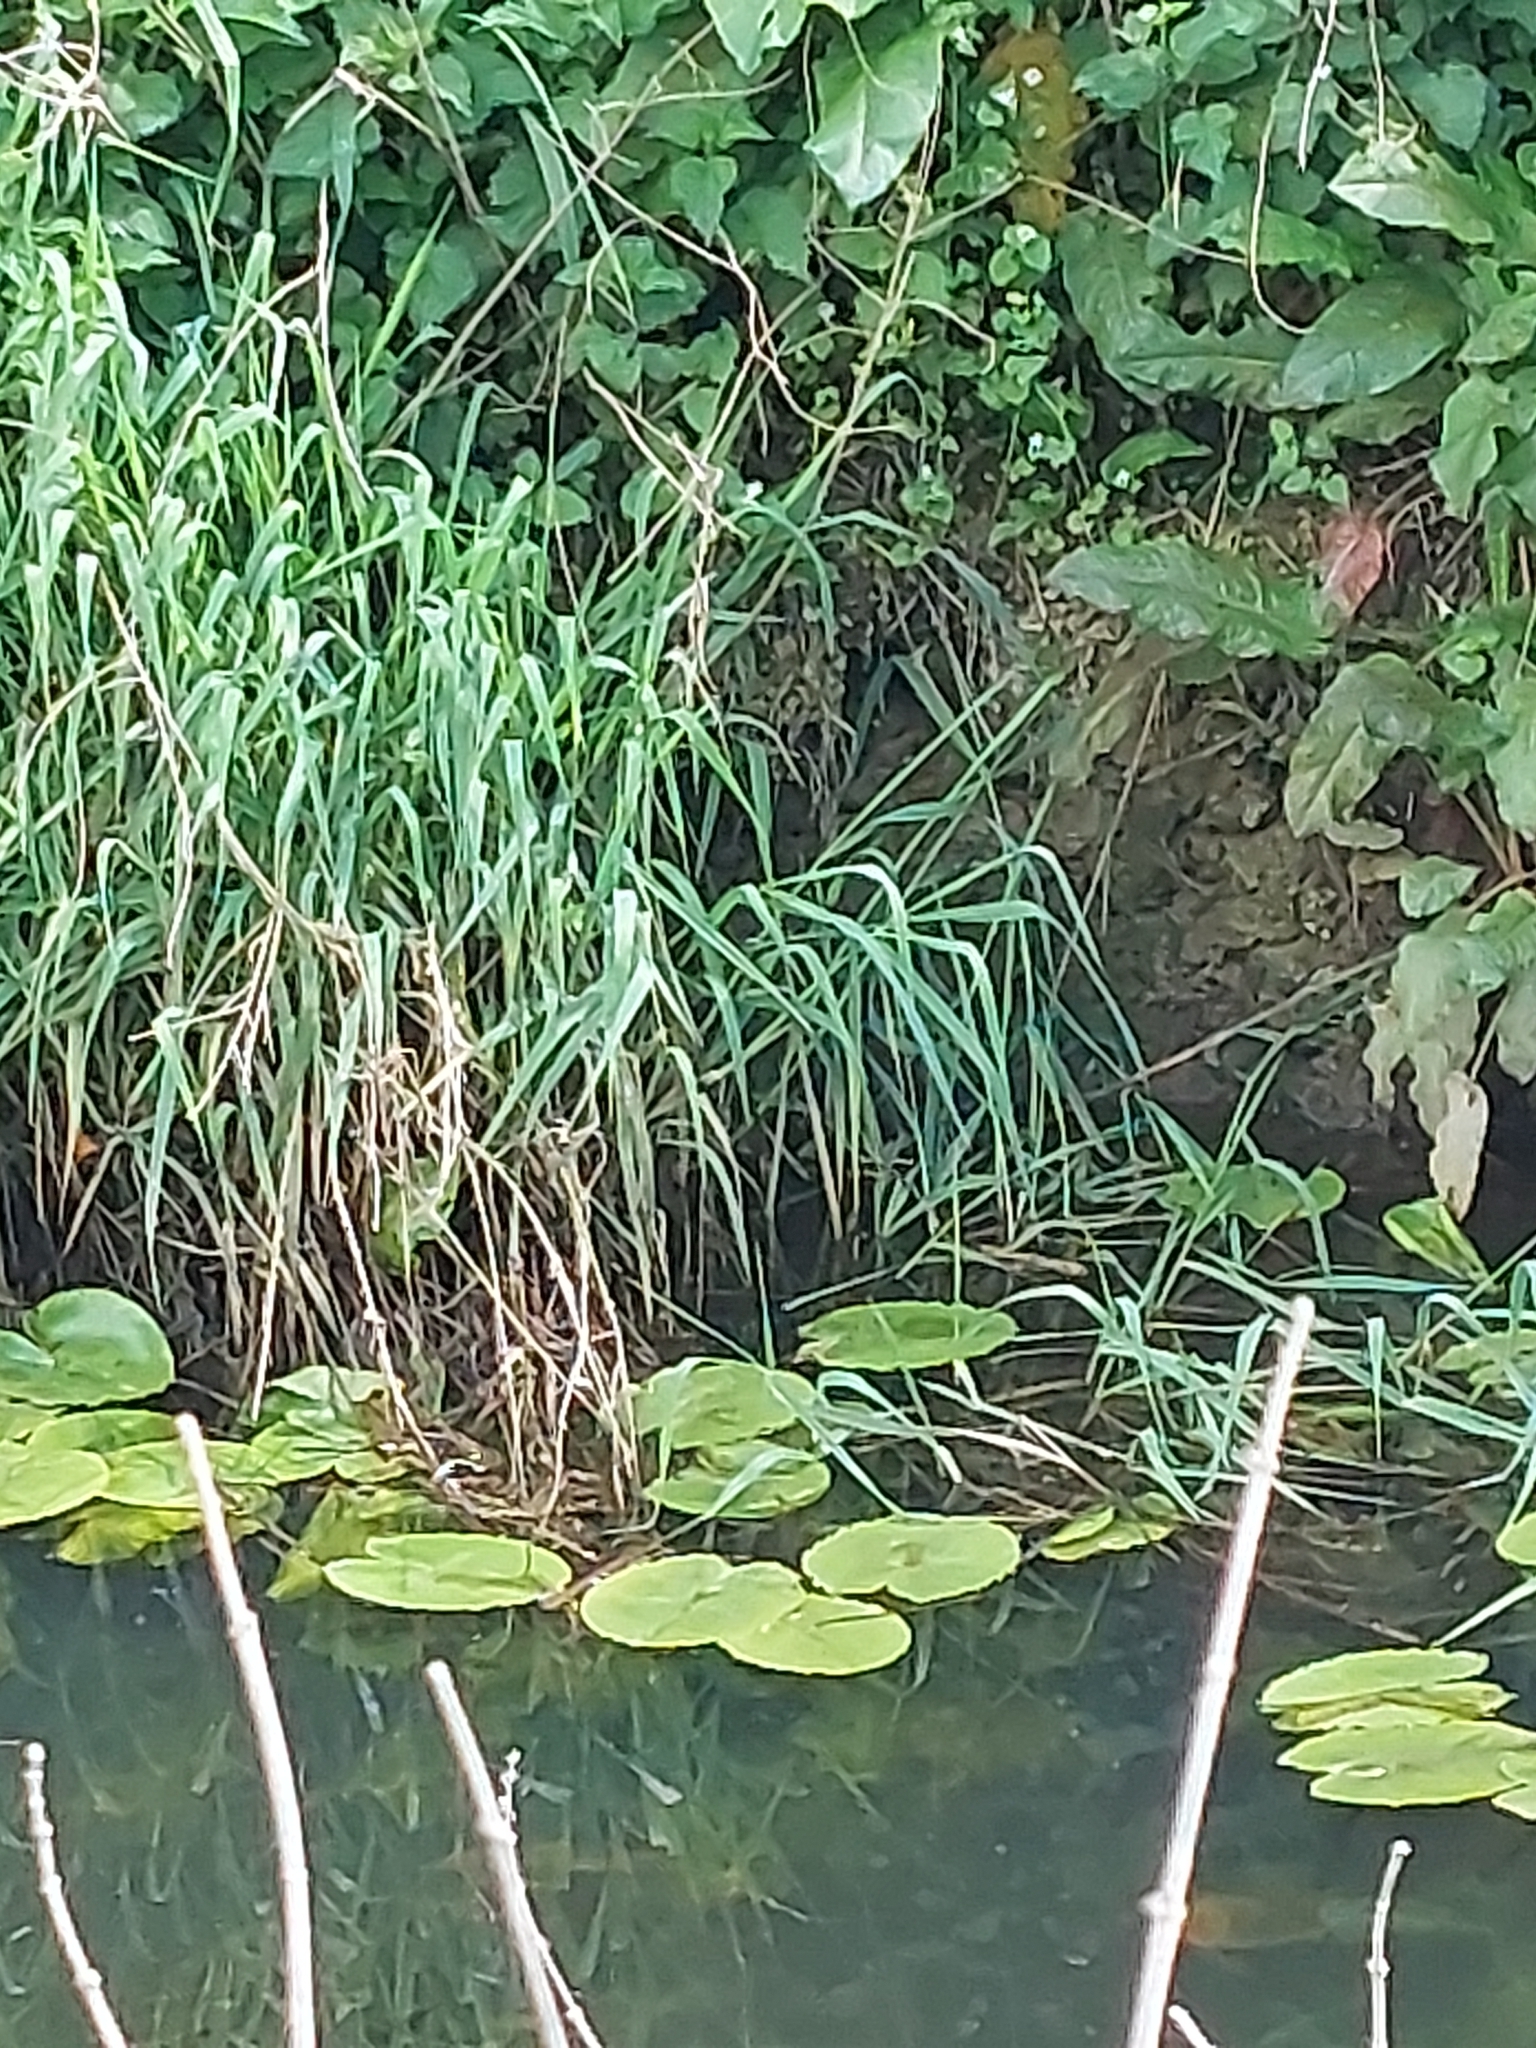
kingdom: Plantae
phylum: Tracheophyta
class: Magnoliopsida
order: Nymphaeales
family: Nymphaeaceae
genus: Nuphar
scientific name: Nuphar lutea
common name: Yellow water-lily
